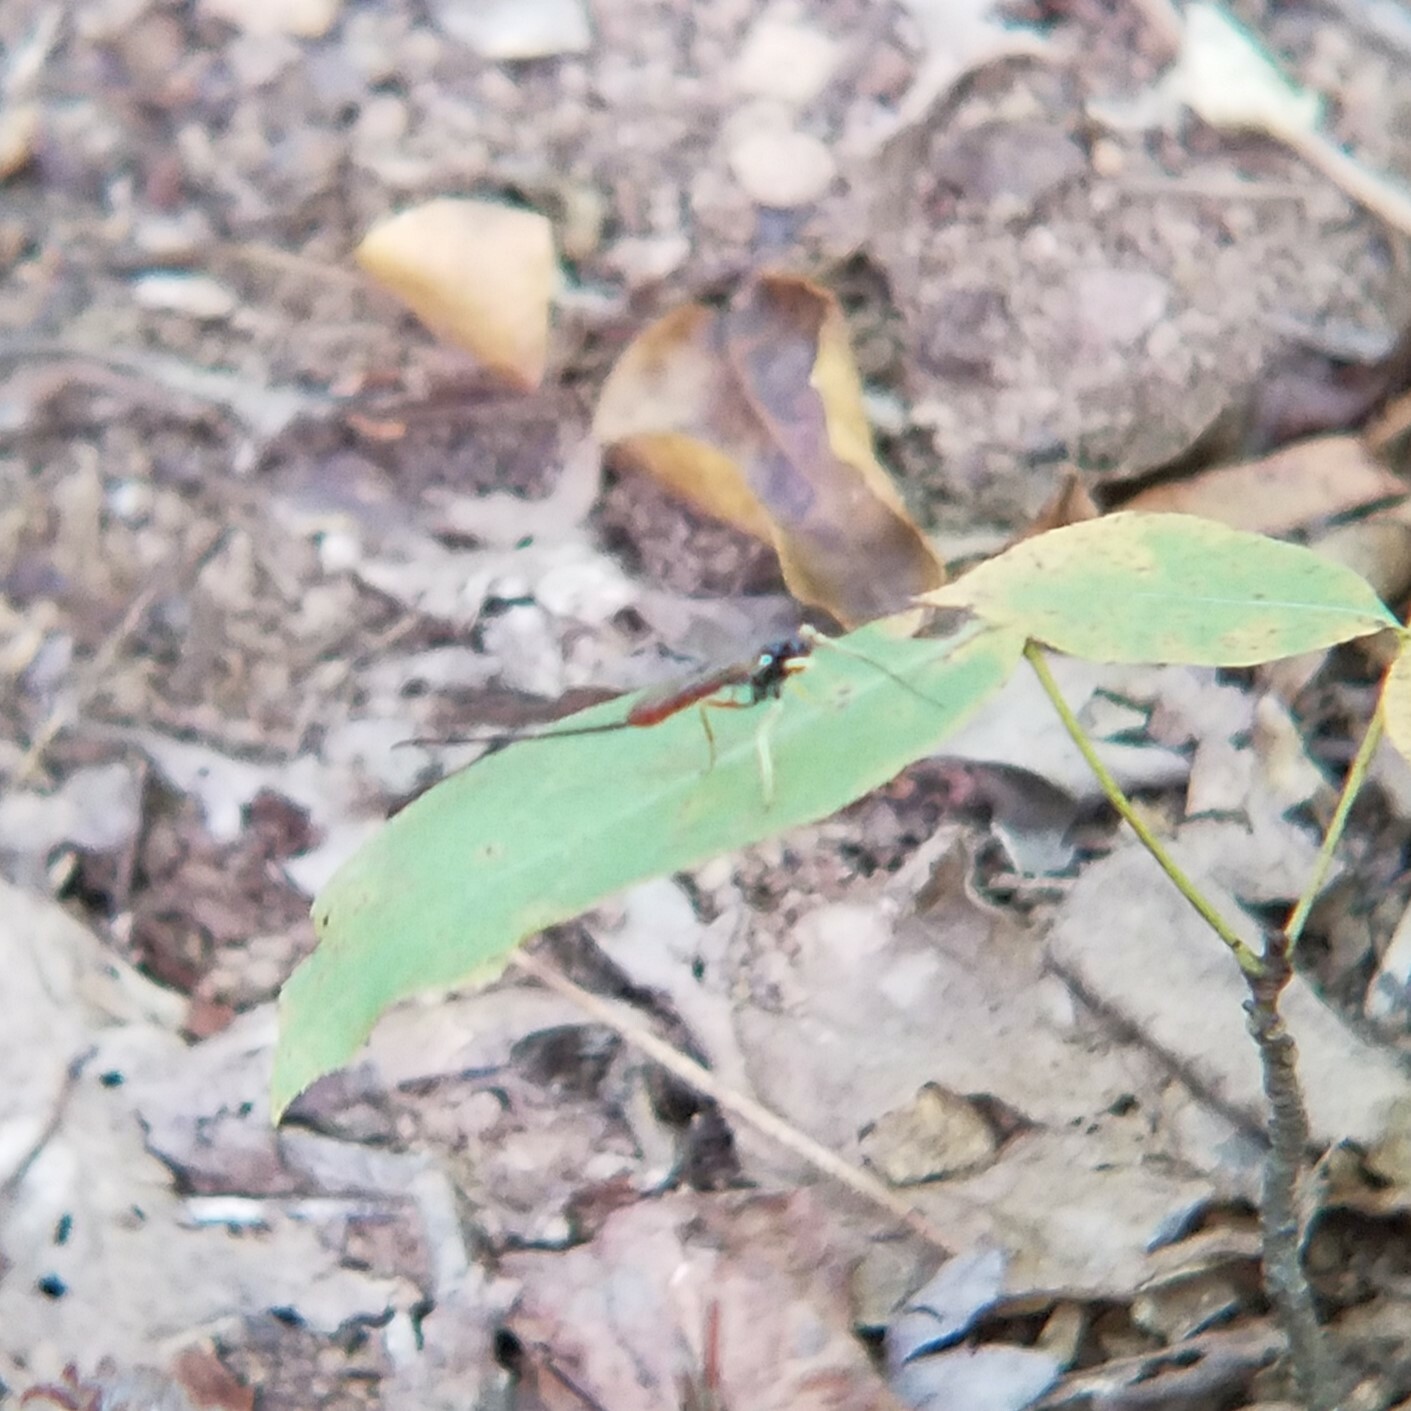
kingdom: Animalia
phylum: Arthropoda
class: Insecta
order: Hymenoptera
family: Ichneumonidae
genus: Dolichomitus
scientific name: Dolichomitus irritator
